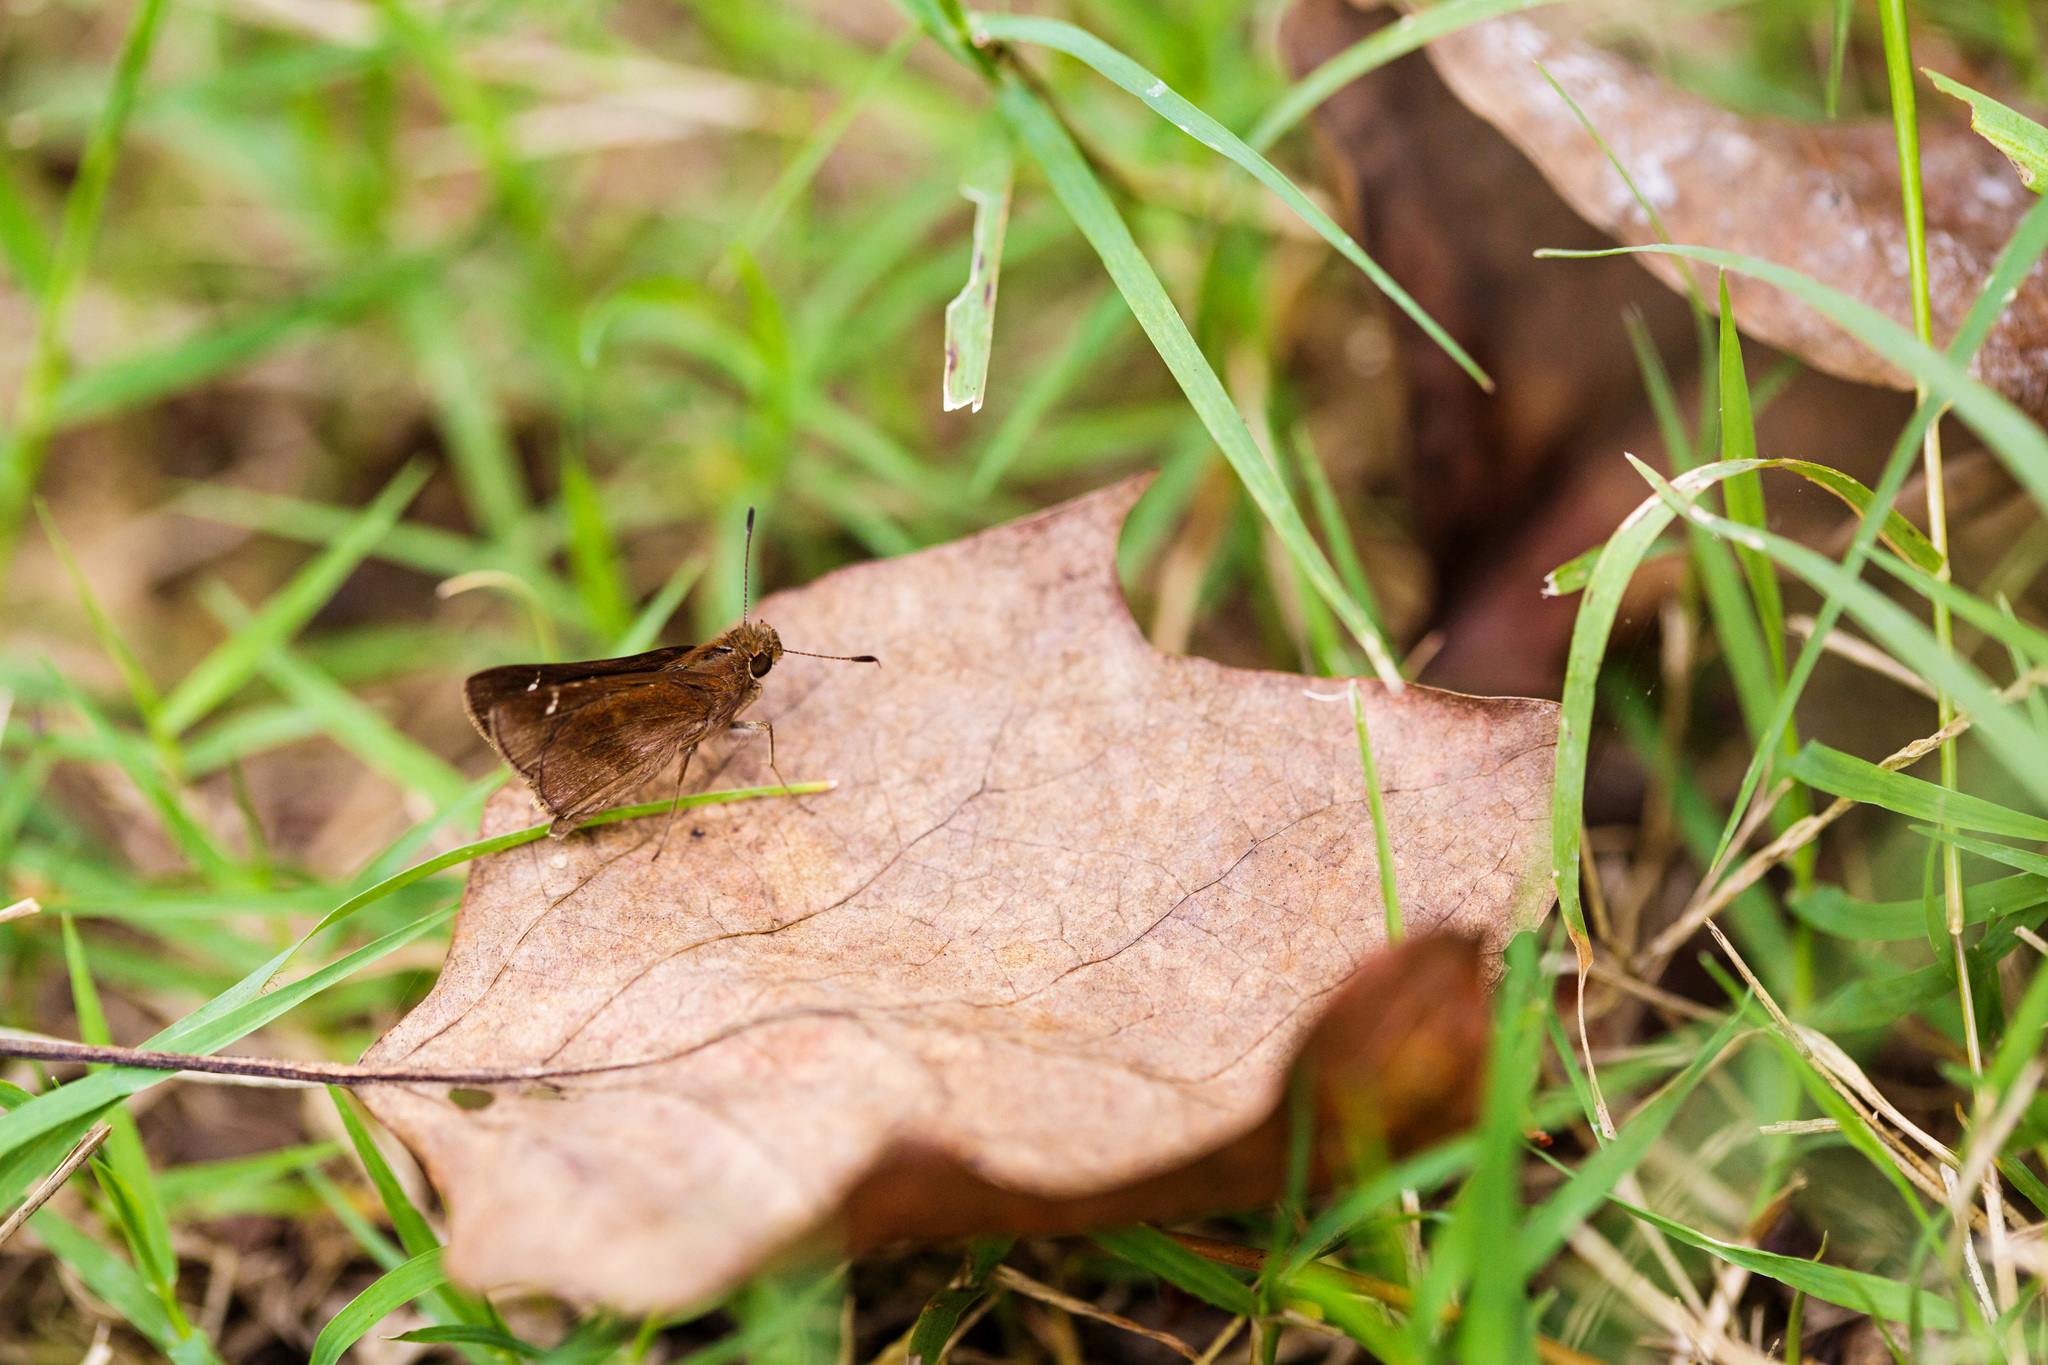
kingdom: Animalia
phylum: Arthropoda
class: Insecta
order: Lepidoptera
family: Hesperiidae
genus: Lerema
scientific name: Lerema accius
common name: Clouded skipper
